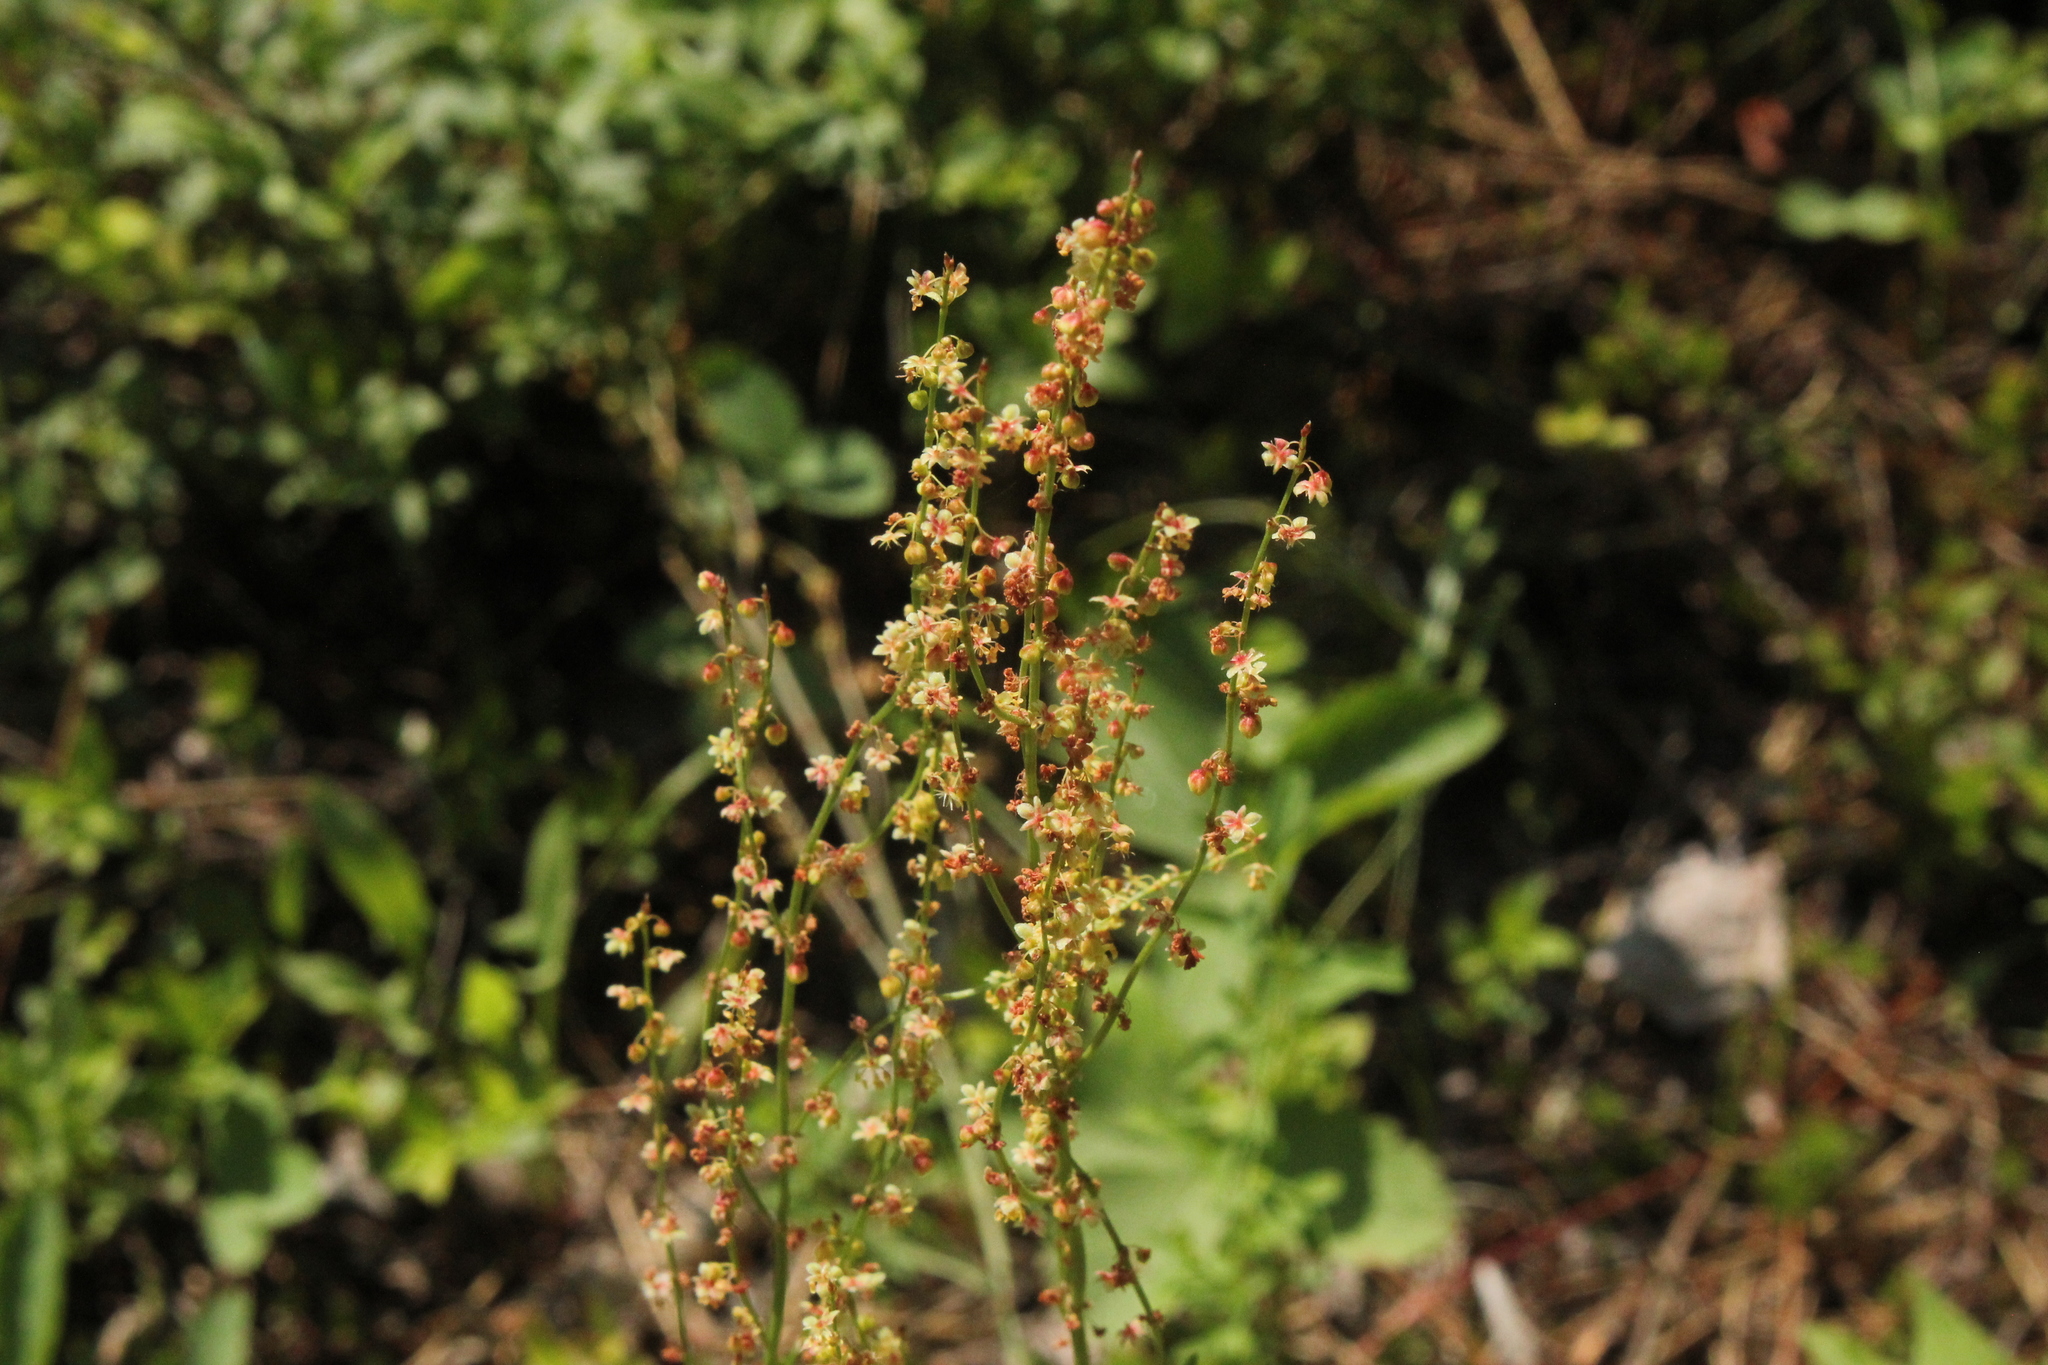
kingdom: Plantae
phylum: Tracheophyta
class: Magnoliopsida
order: Caryophyllales
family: Polygonaceae
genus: Rumex
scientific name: Rumex acetosella
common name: Common sheep sorrel
